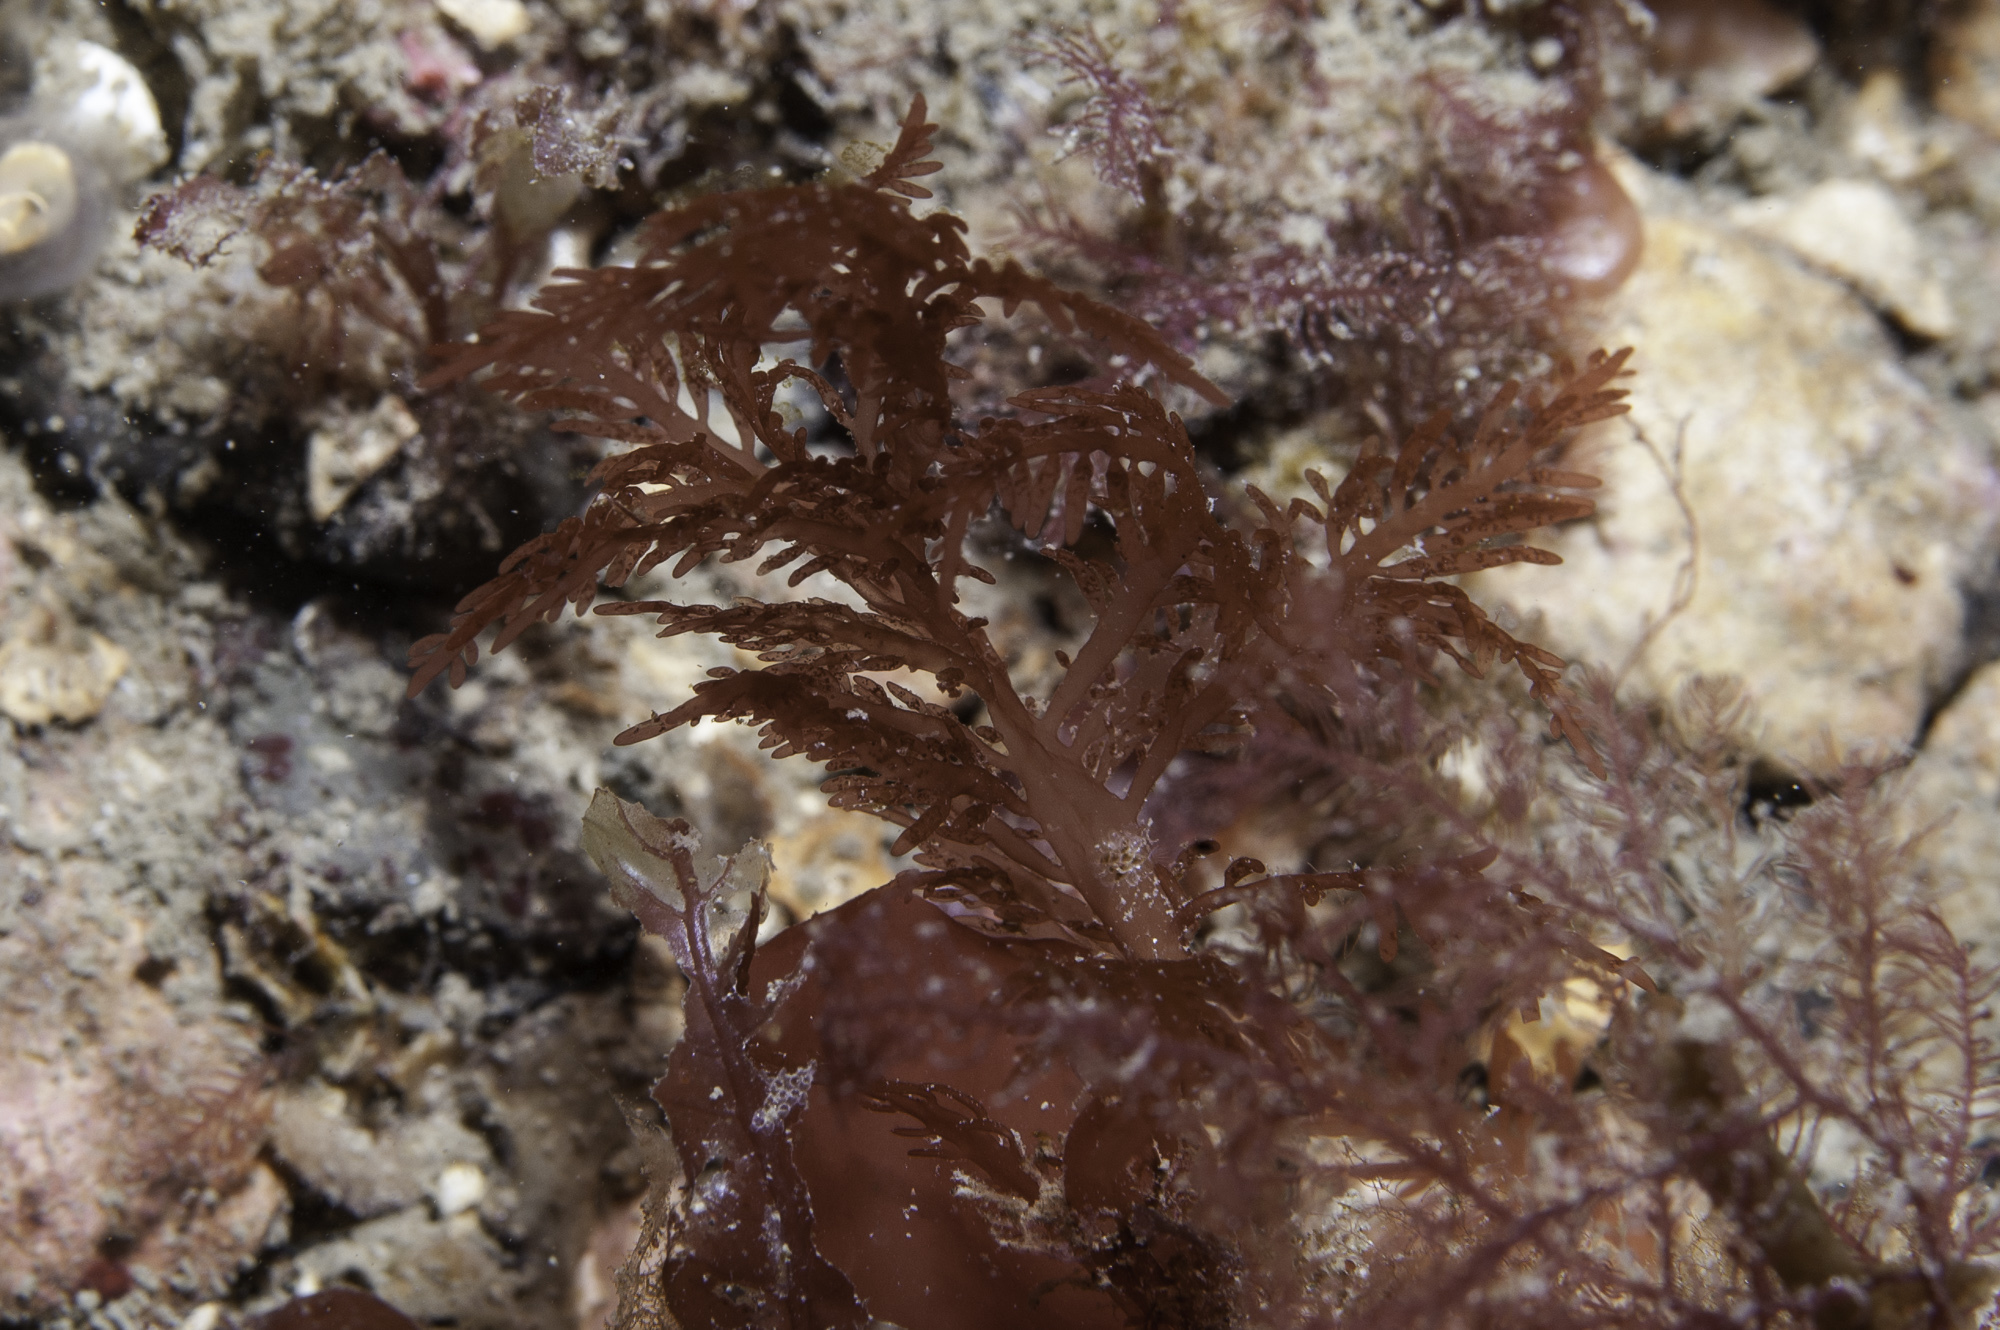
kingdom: Plantae
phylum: Rhodophyta
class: Florideophyceae
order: Rhodymeniales
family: Lomentariaceae
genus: Lomentaria
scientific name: Lomentaria clavellosa
